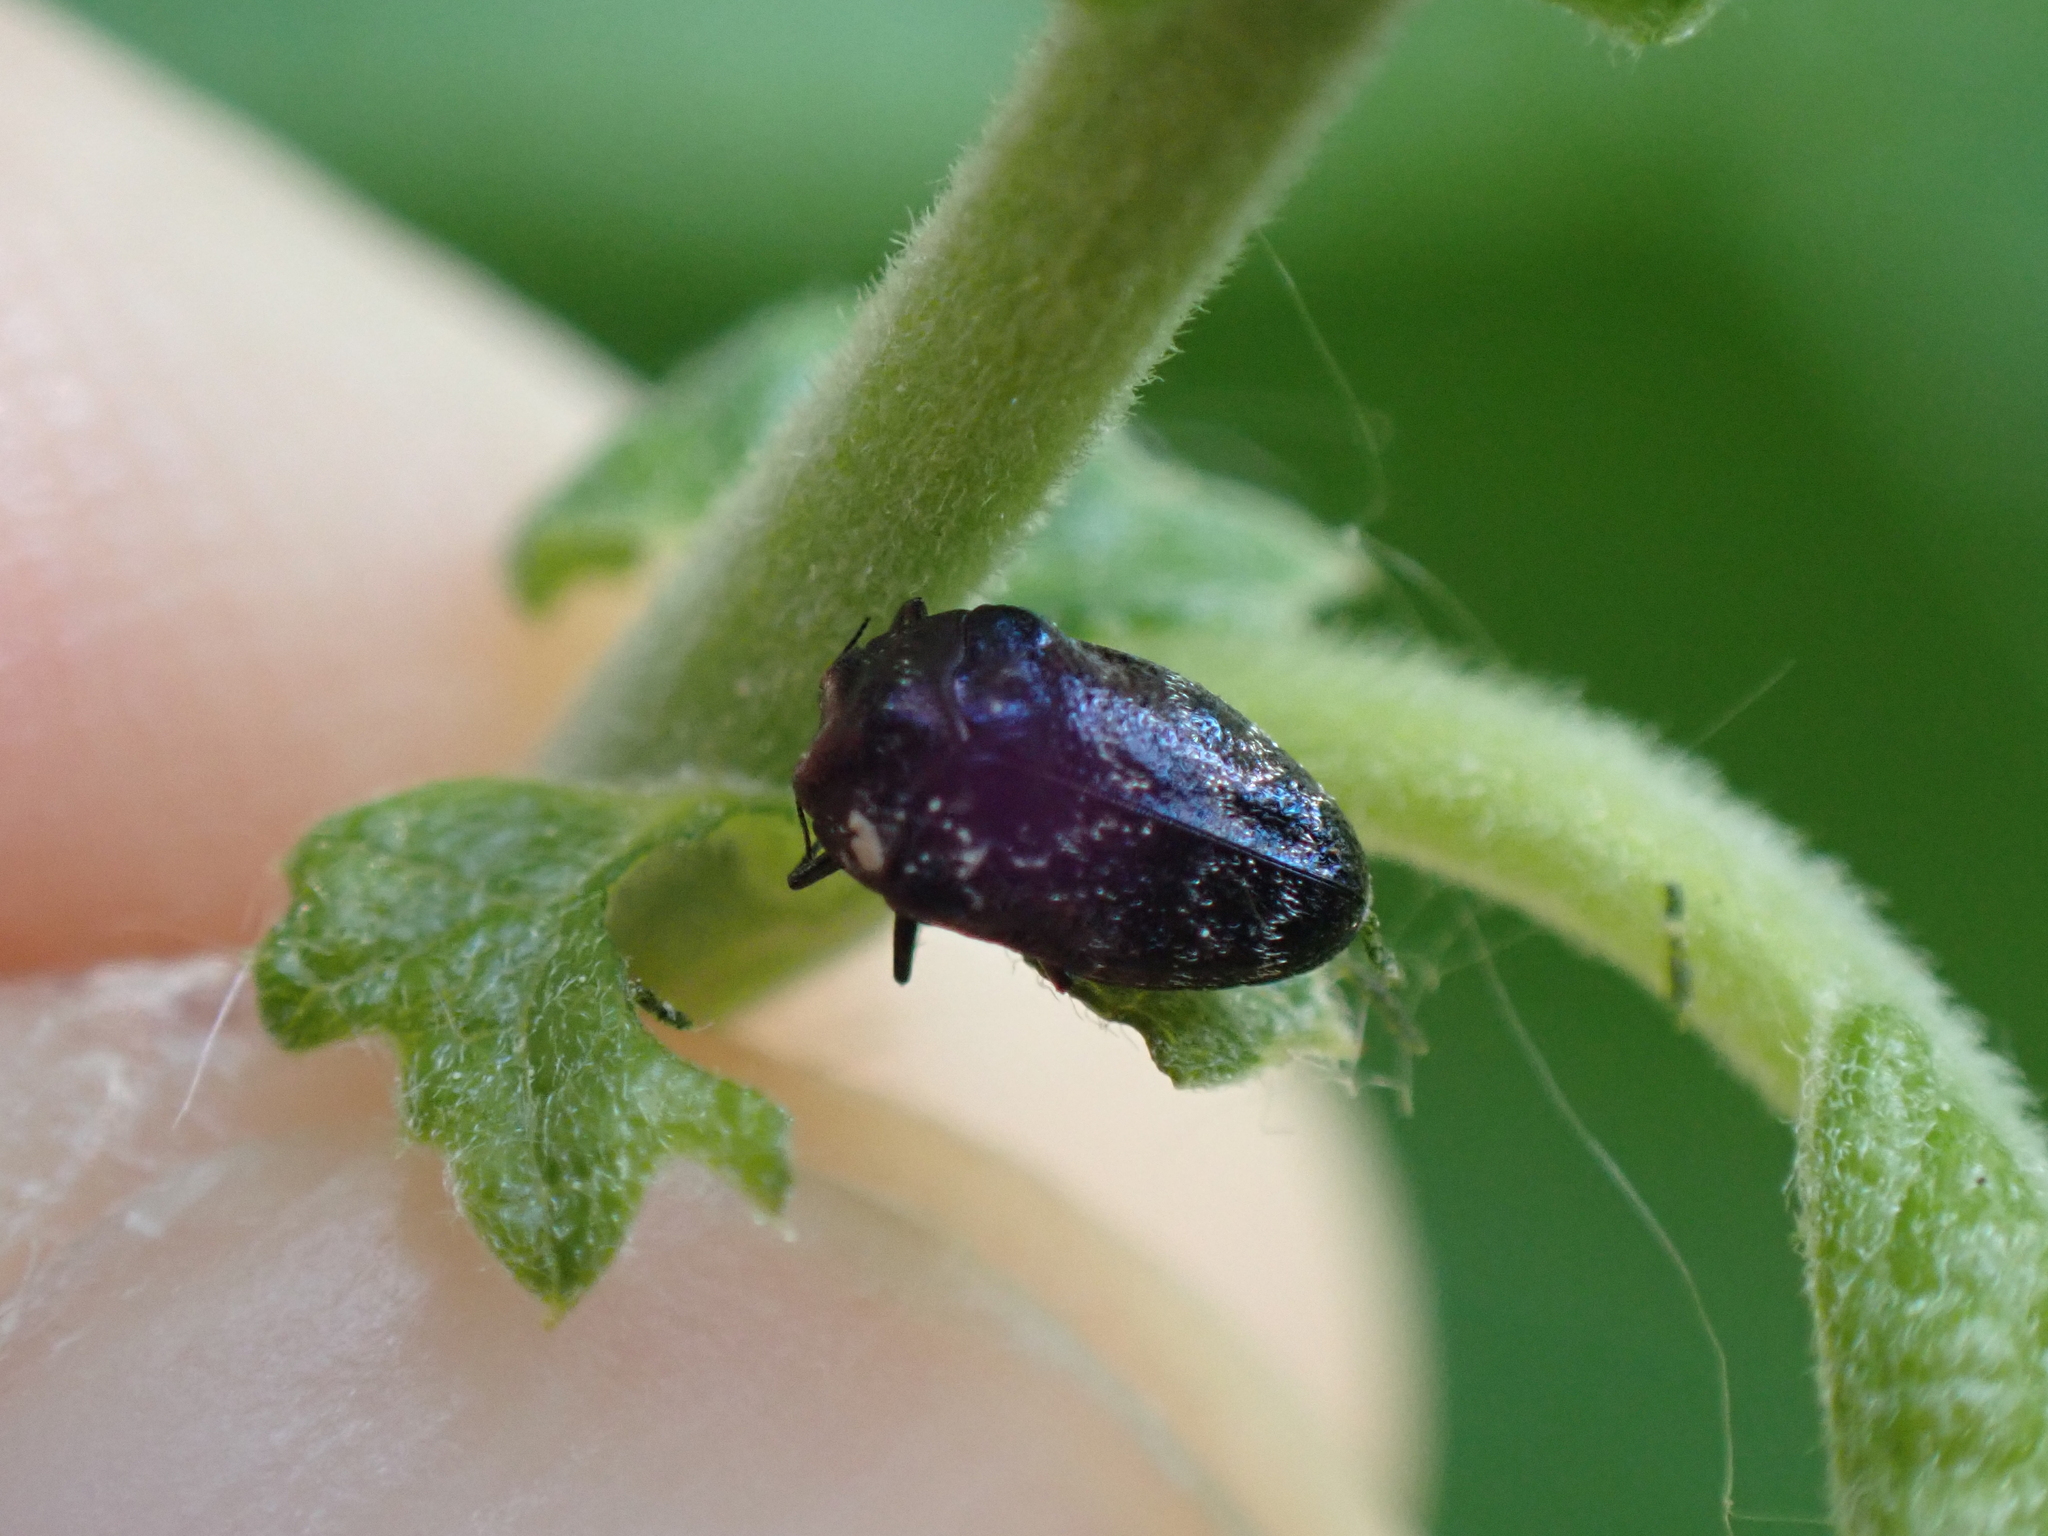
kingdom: Animalia
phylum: Arthropoda
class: Insecta
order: Coleoptera
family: Buprestidae
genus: Trachys
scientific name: Trachys minutus
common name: Metallic wood-boring beetle
